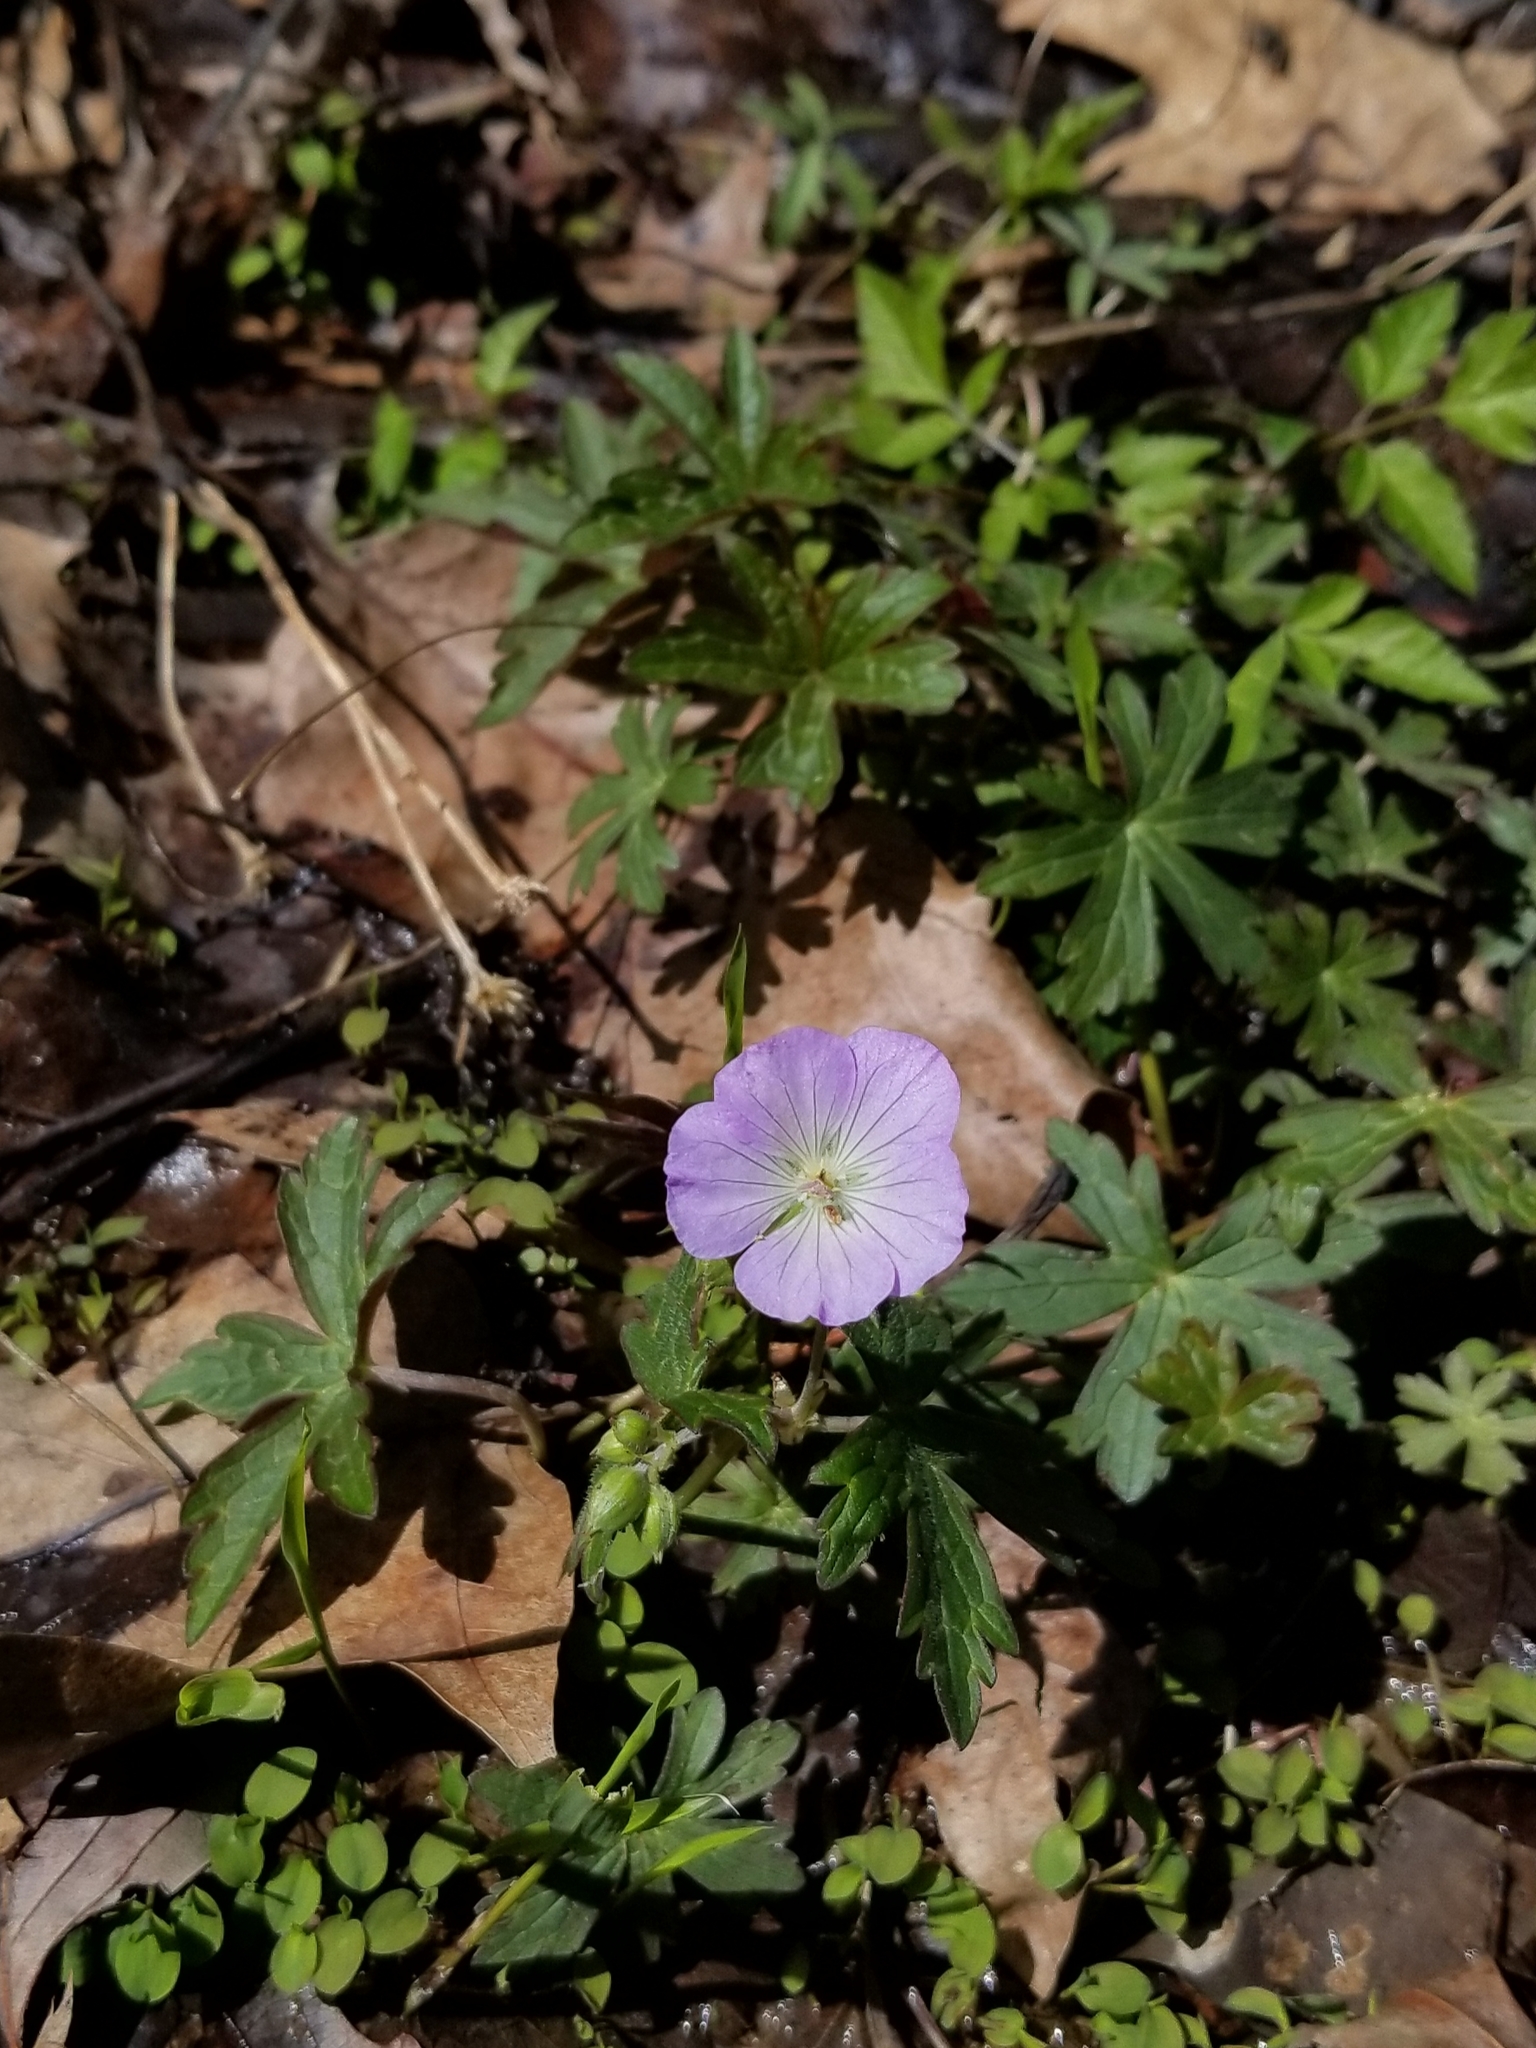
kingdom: Plantae
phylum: Tracheophyta
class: Magnoliopsida
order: Geraniales
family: Geraniaceae
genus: Geranium
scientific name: Geranium maculatum
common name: Spotted geranium
